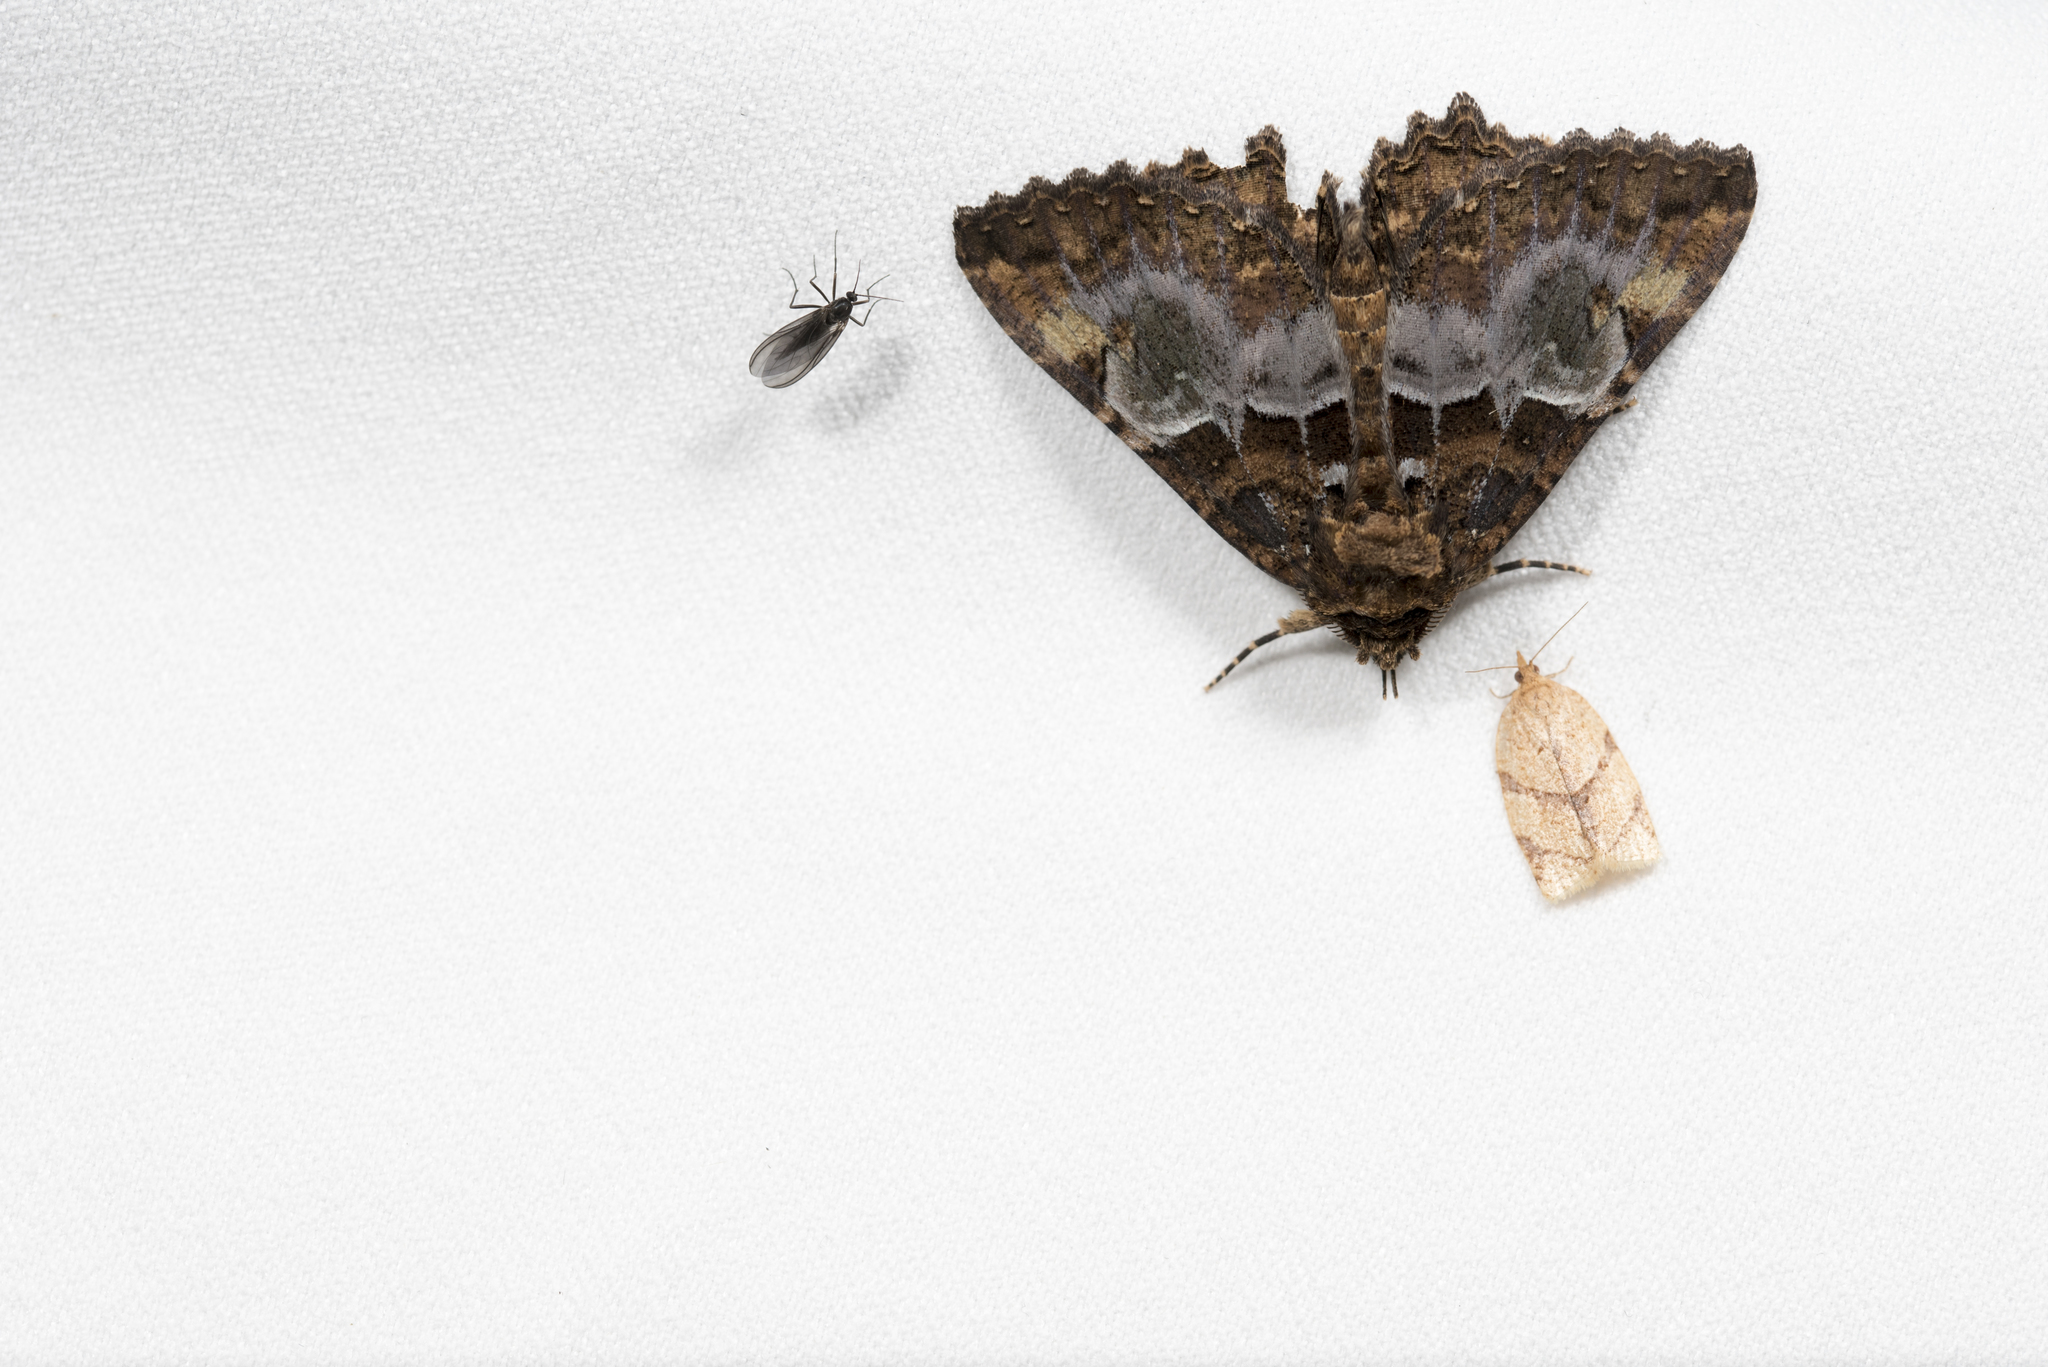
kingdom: Animalia
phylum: Arthropoda
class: Insecta
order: Lepidoptera
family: Erebidae
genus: Daddala
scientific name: Daddala lucilla
